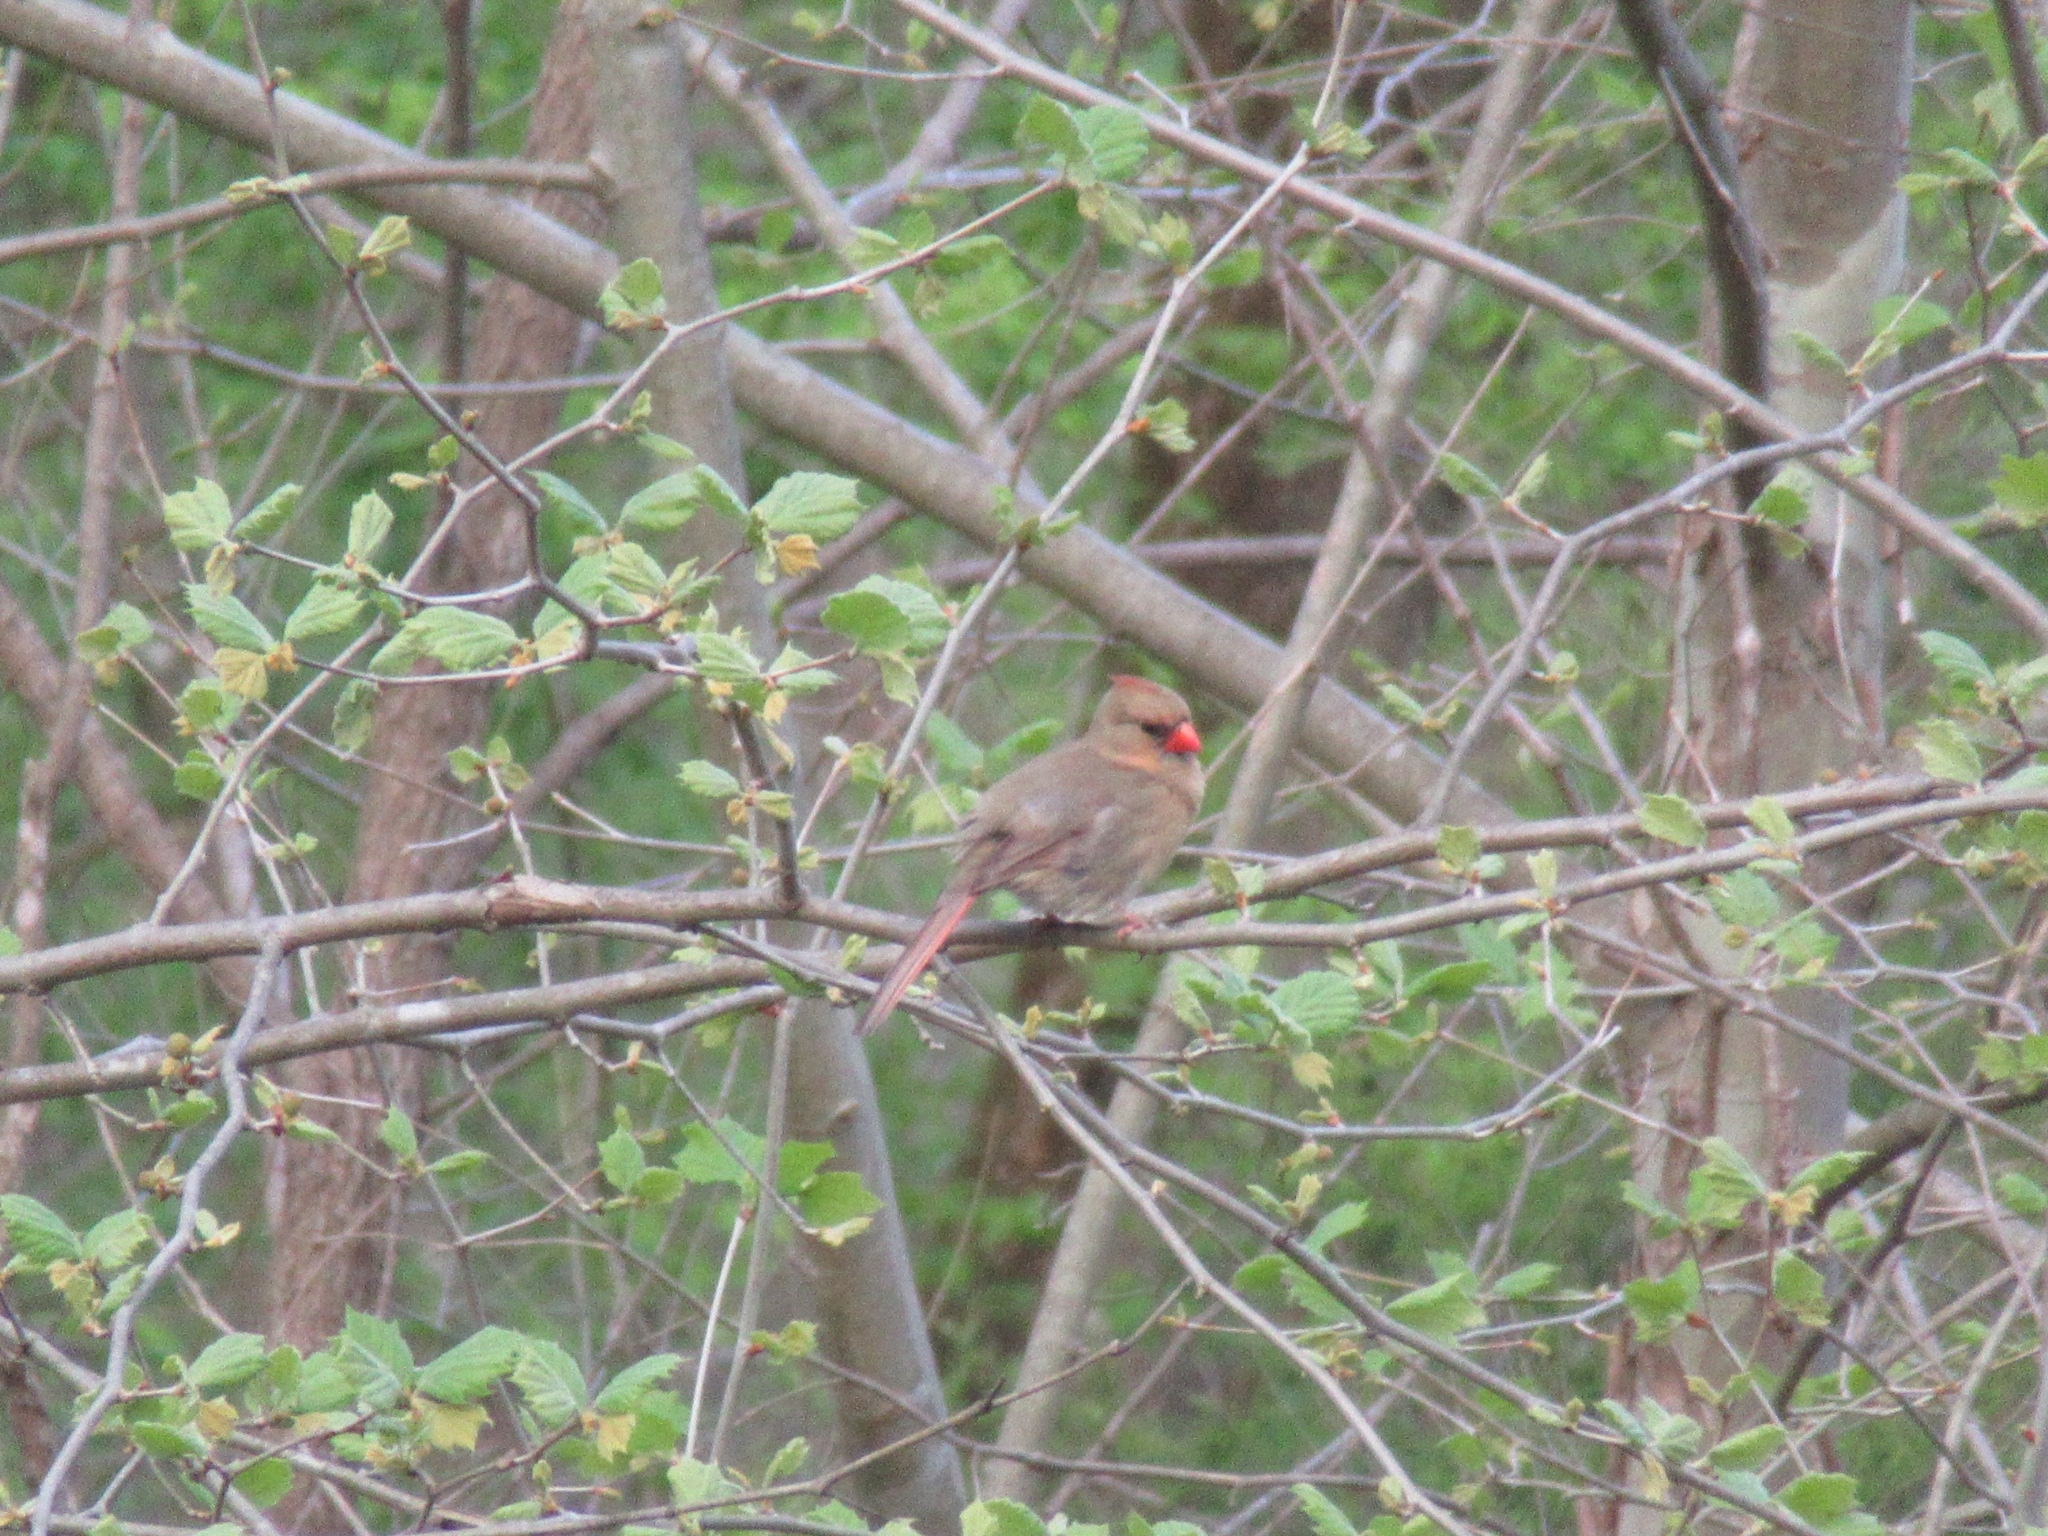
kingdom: Animalia
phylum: Chordata
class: Aves
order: Passeriformes
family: Cardinalidae
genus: Cardinalis
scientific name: Cardinalis cardinalis
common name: Northern cardinal
